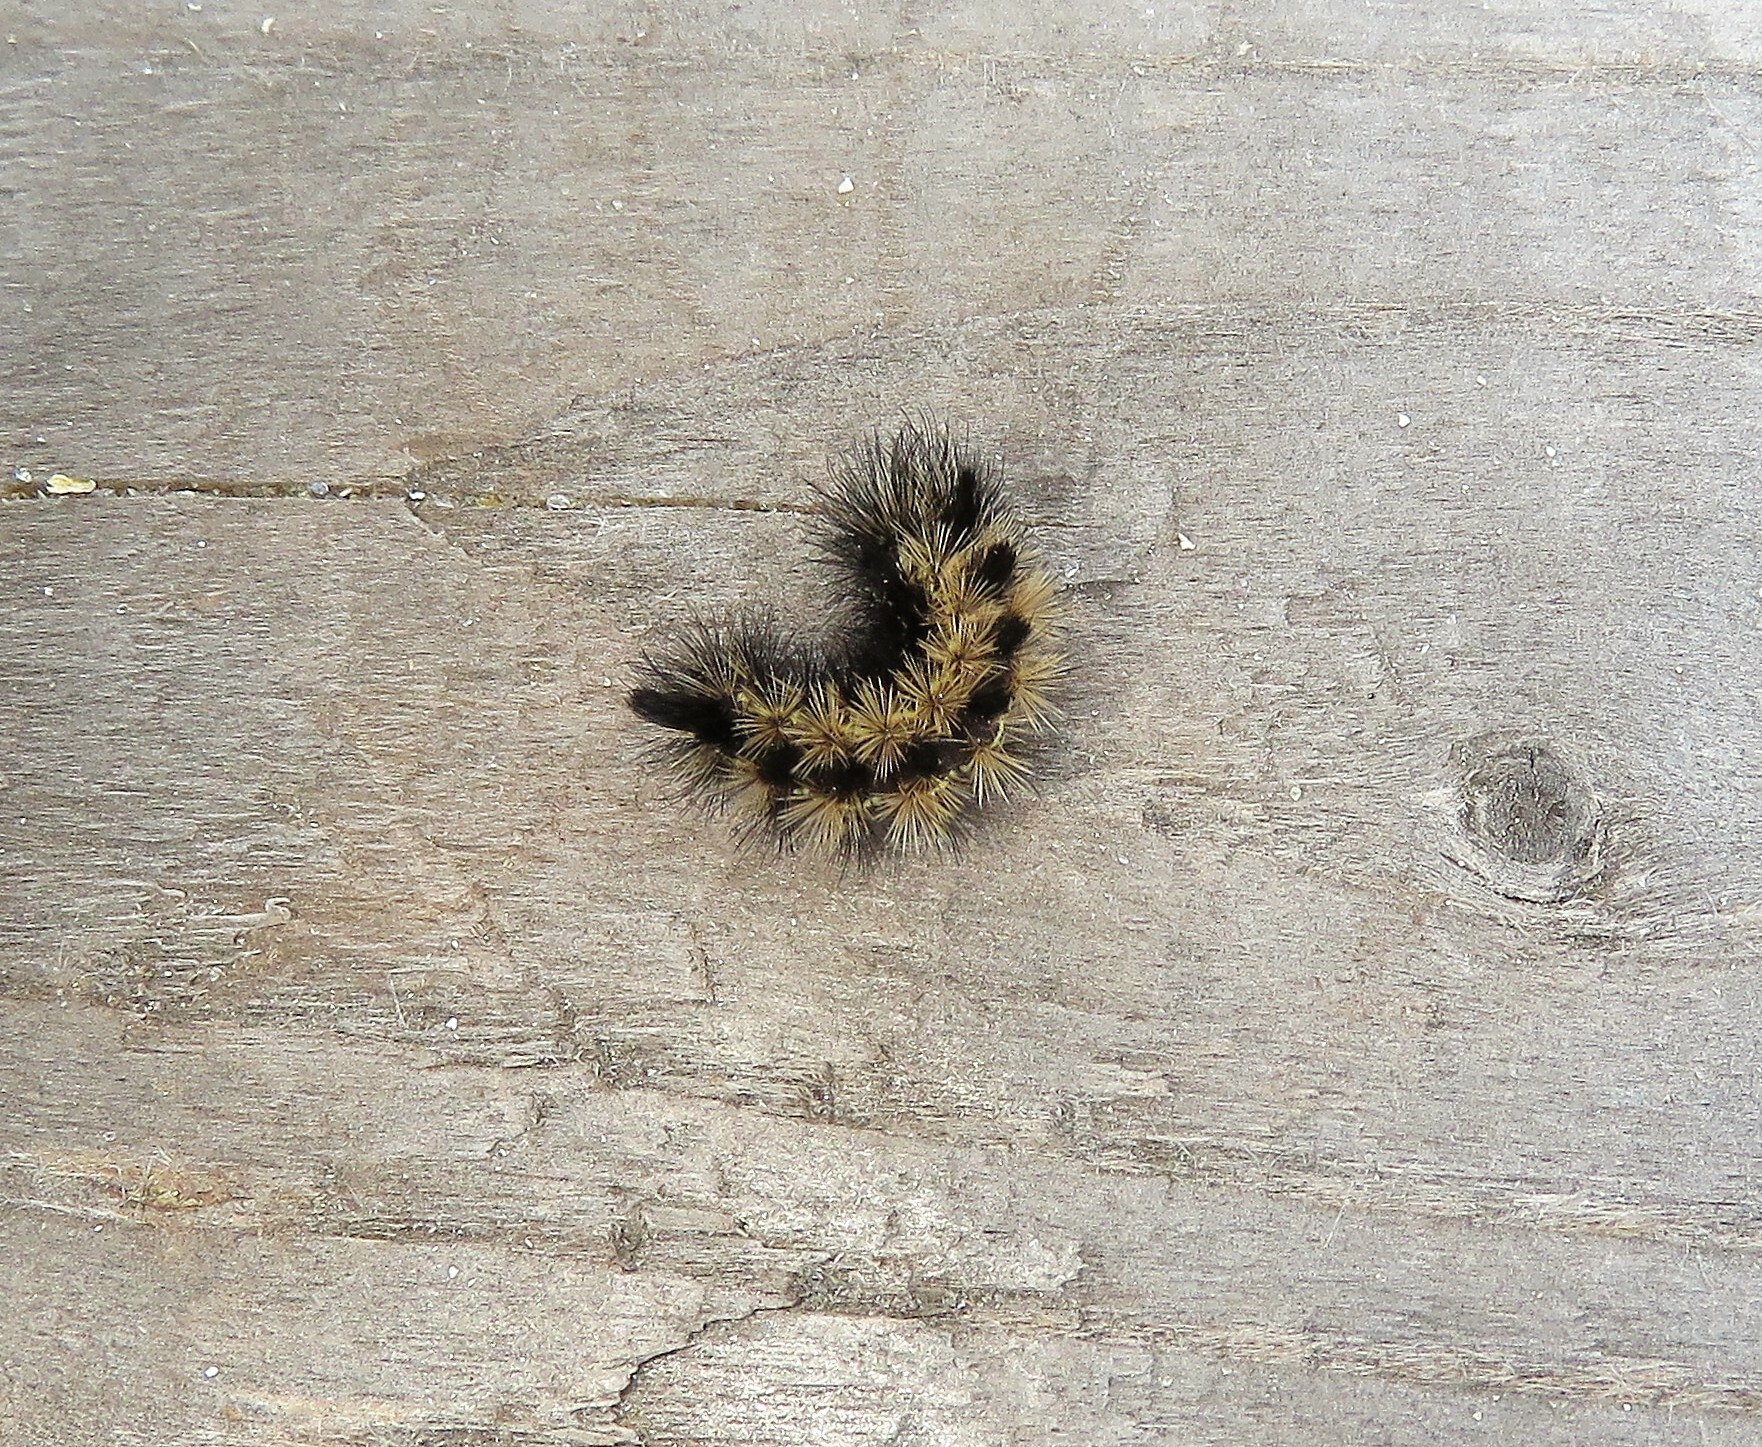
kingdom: Animalia
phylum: Arthropoda
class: Insecta
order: Lepidoptera
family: Erebidae
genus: Ctenucha
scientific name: Ctenucha virginica
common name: Virginia ctenucha moth
